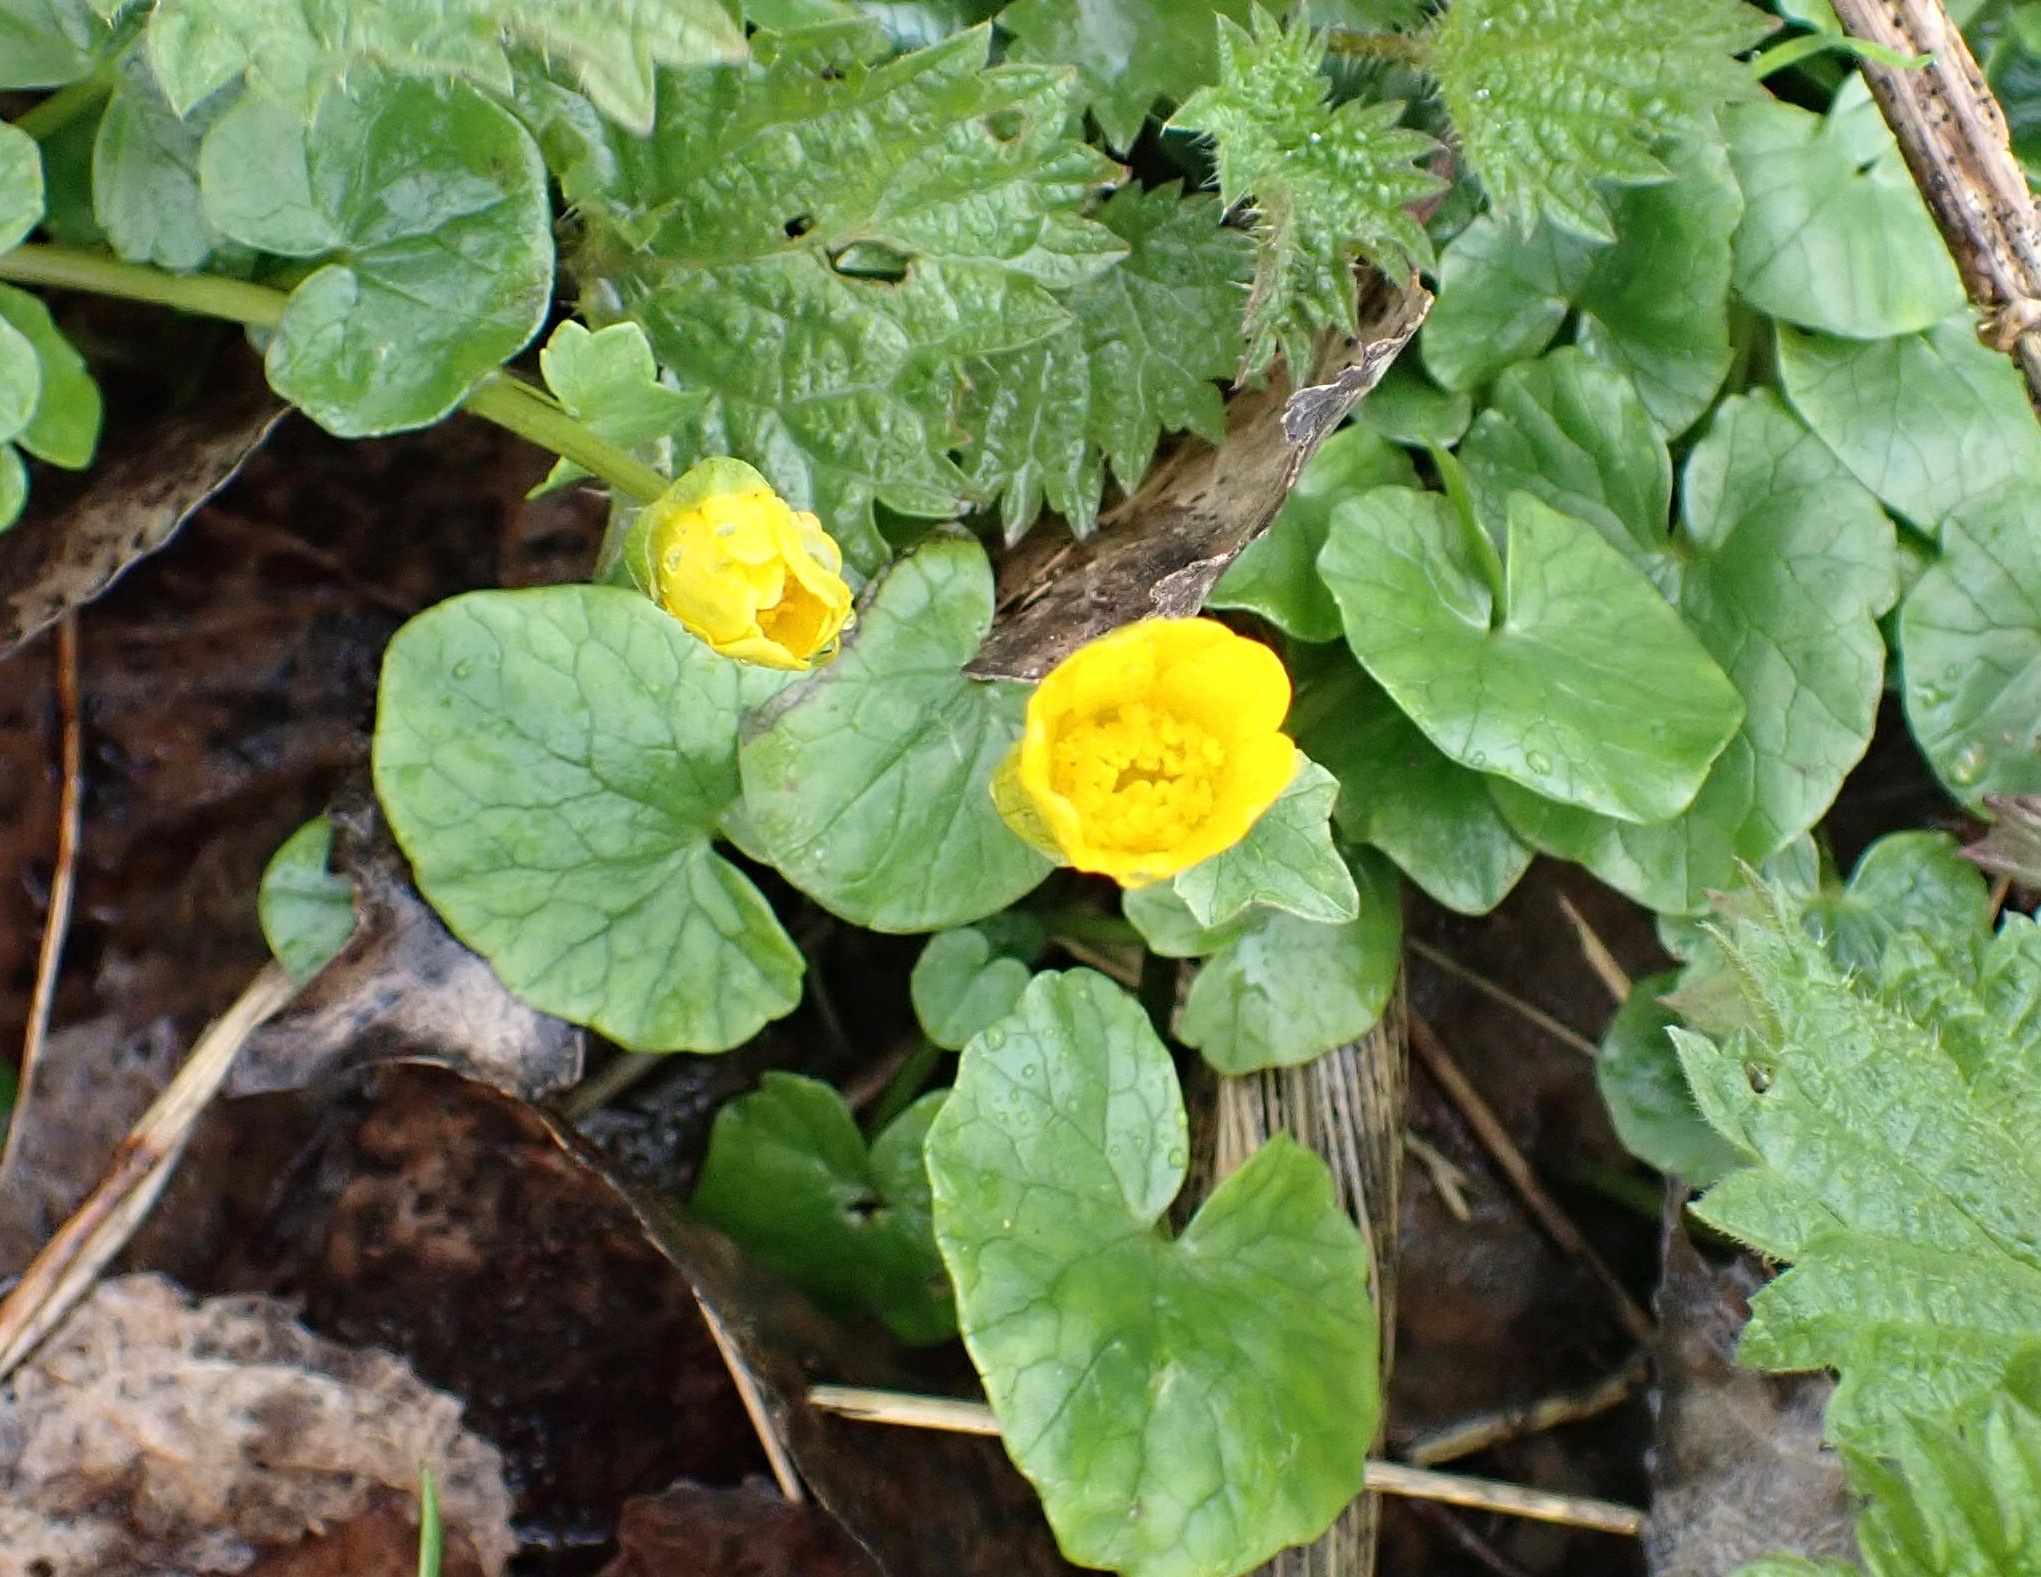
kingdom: Plantae
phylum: Tracheophyta
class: Magnoliopsida
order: Ranunculales
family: Ranunculaceae
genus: Ficaria
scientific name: Ficaria verna
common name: Lesser celandine
